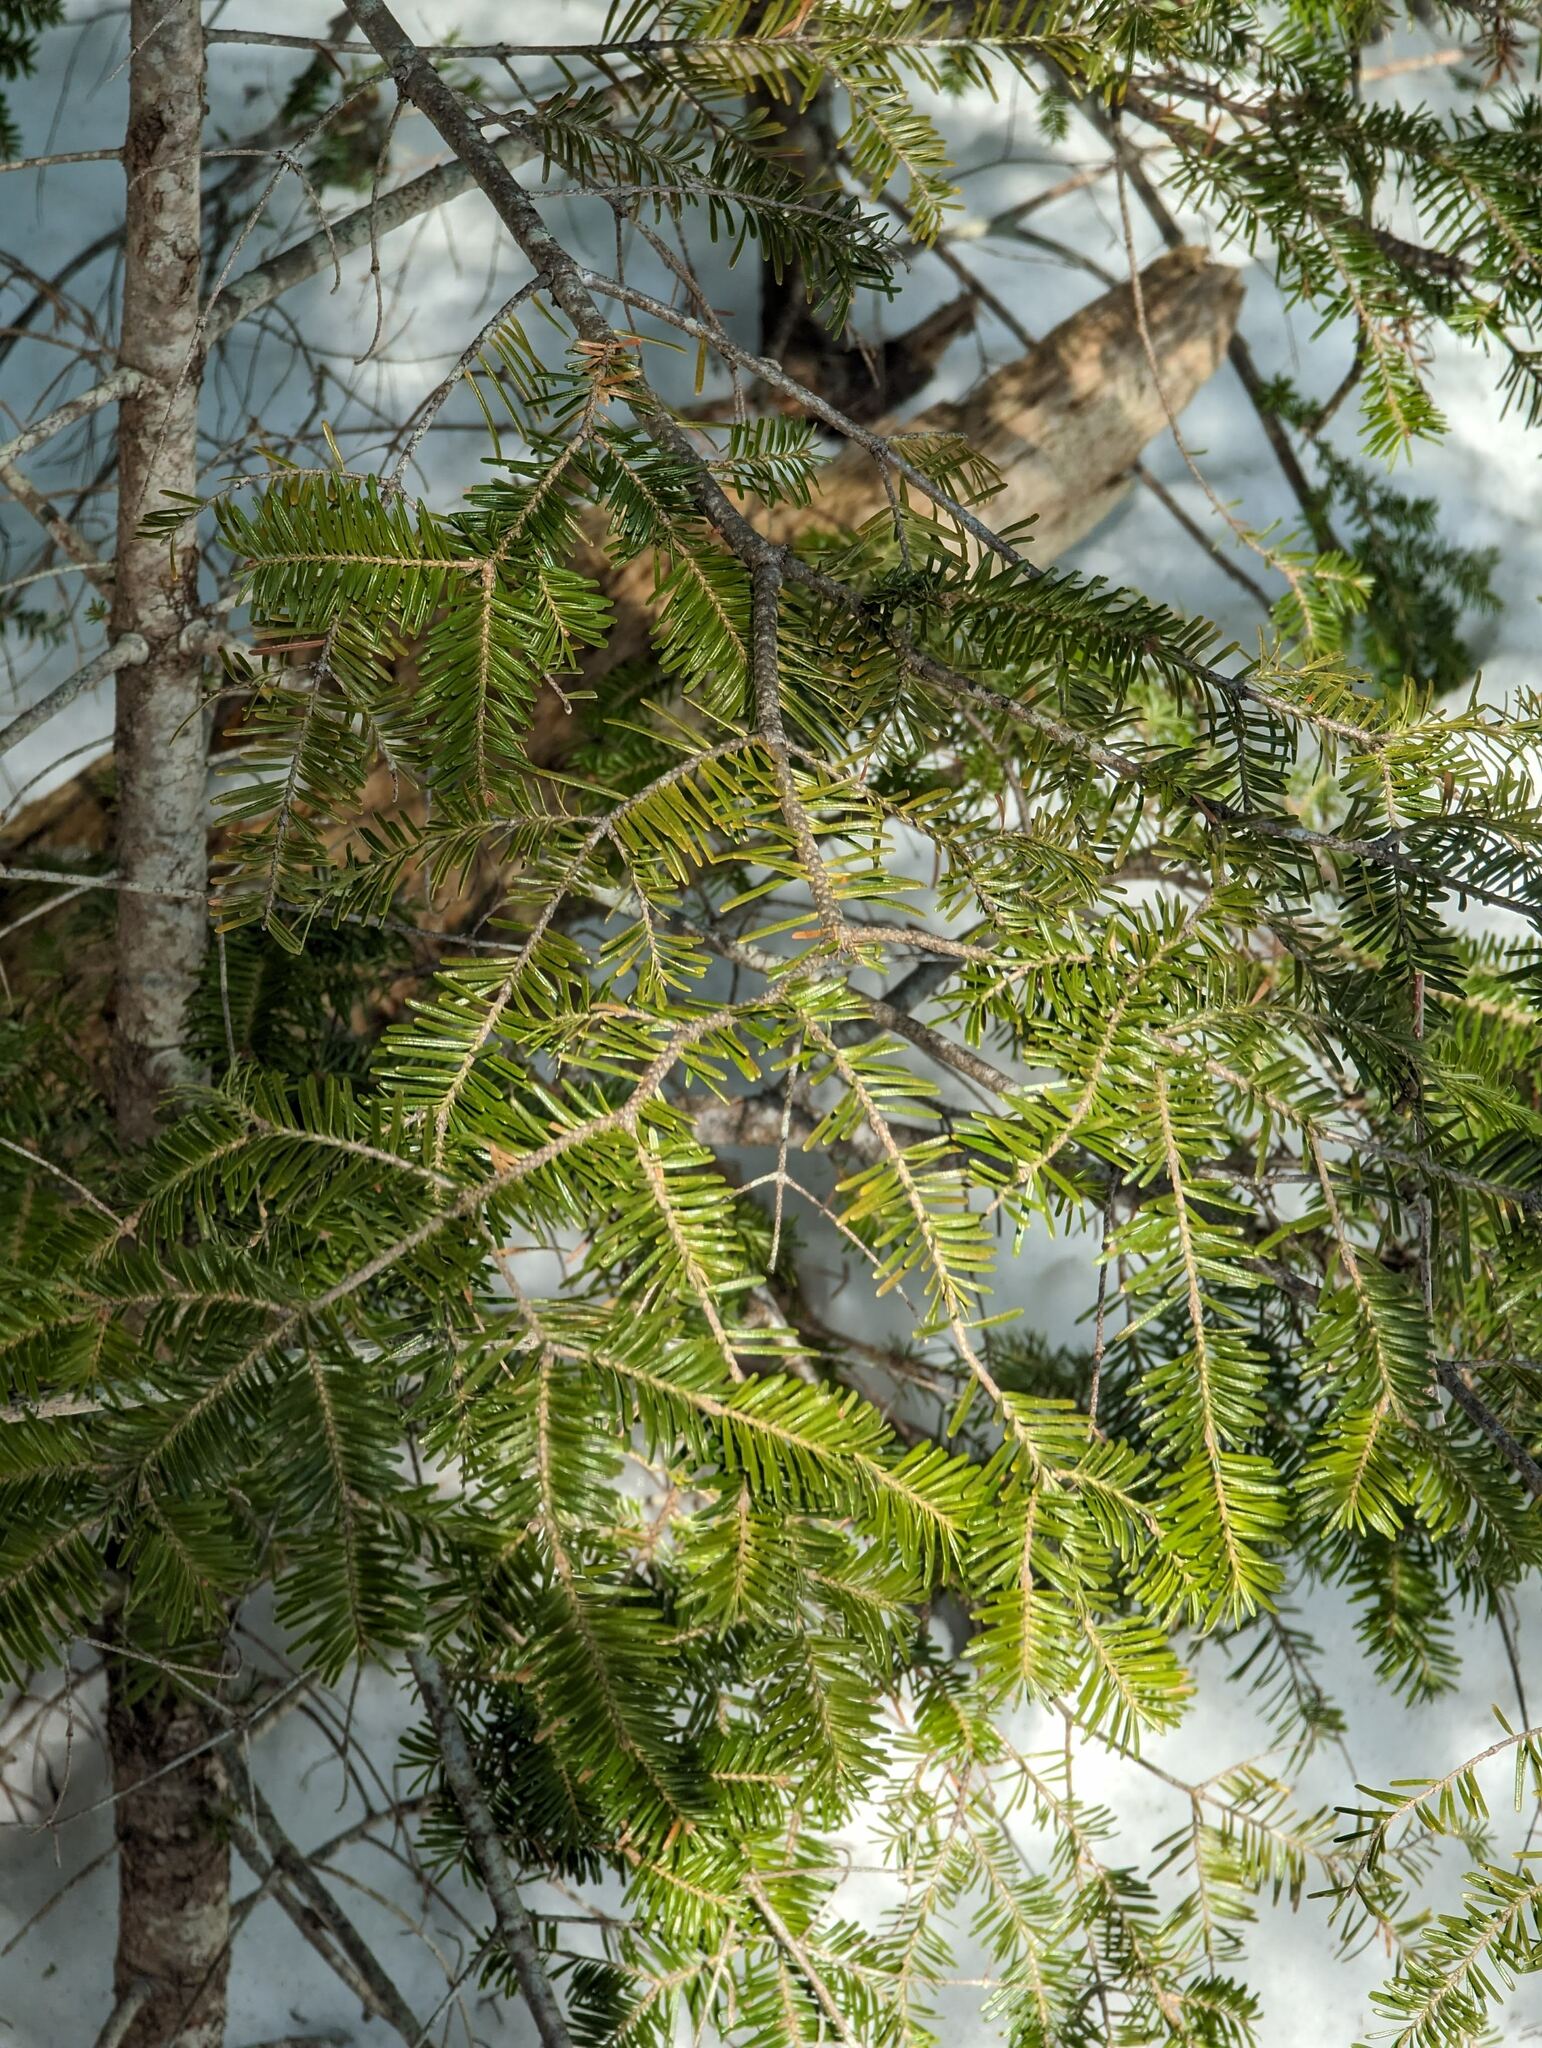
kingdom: Plantae
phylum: Tracheophyta
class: Pinopsida
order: Pinales
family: Pinaceae
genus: Abies
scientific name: Abies balsamea
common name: Balsam fir
